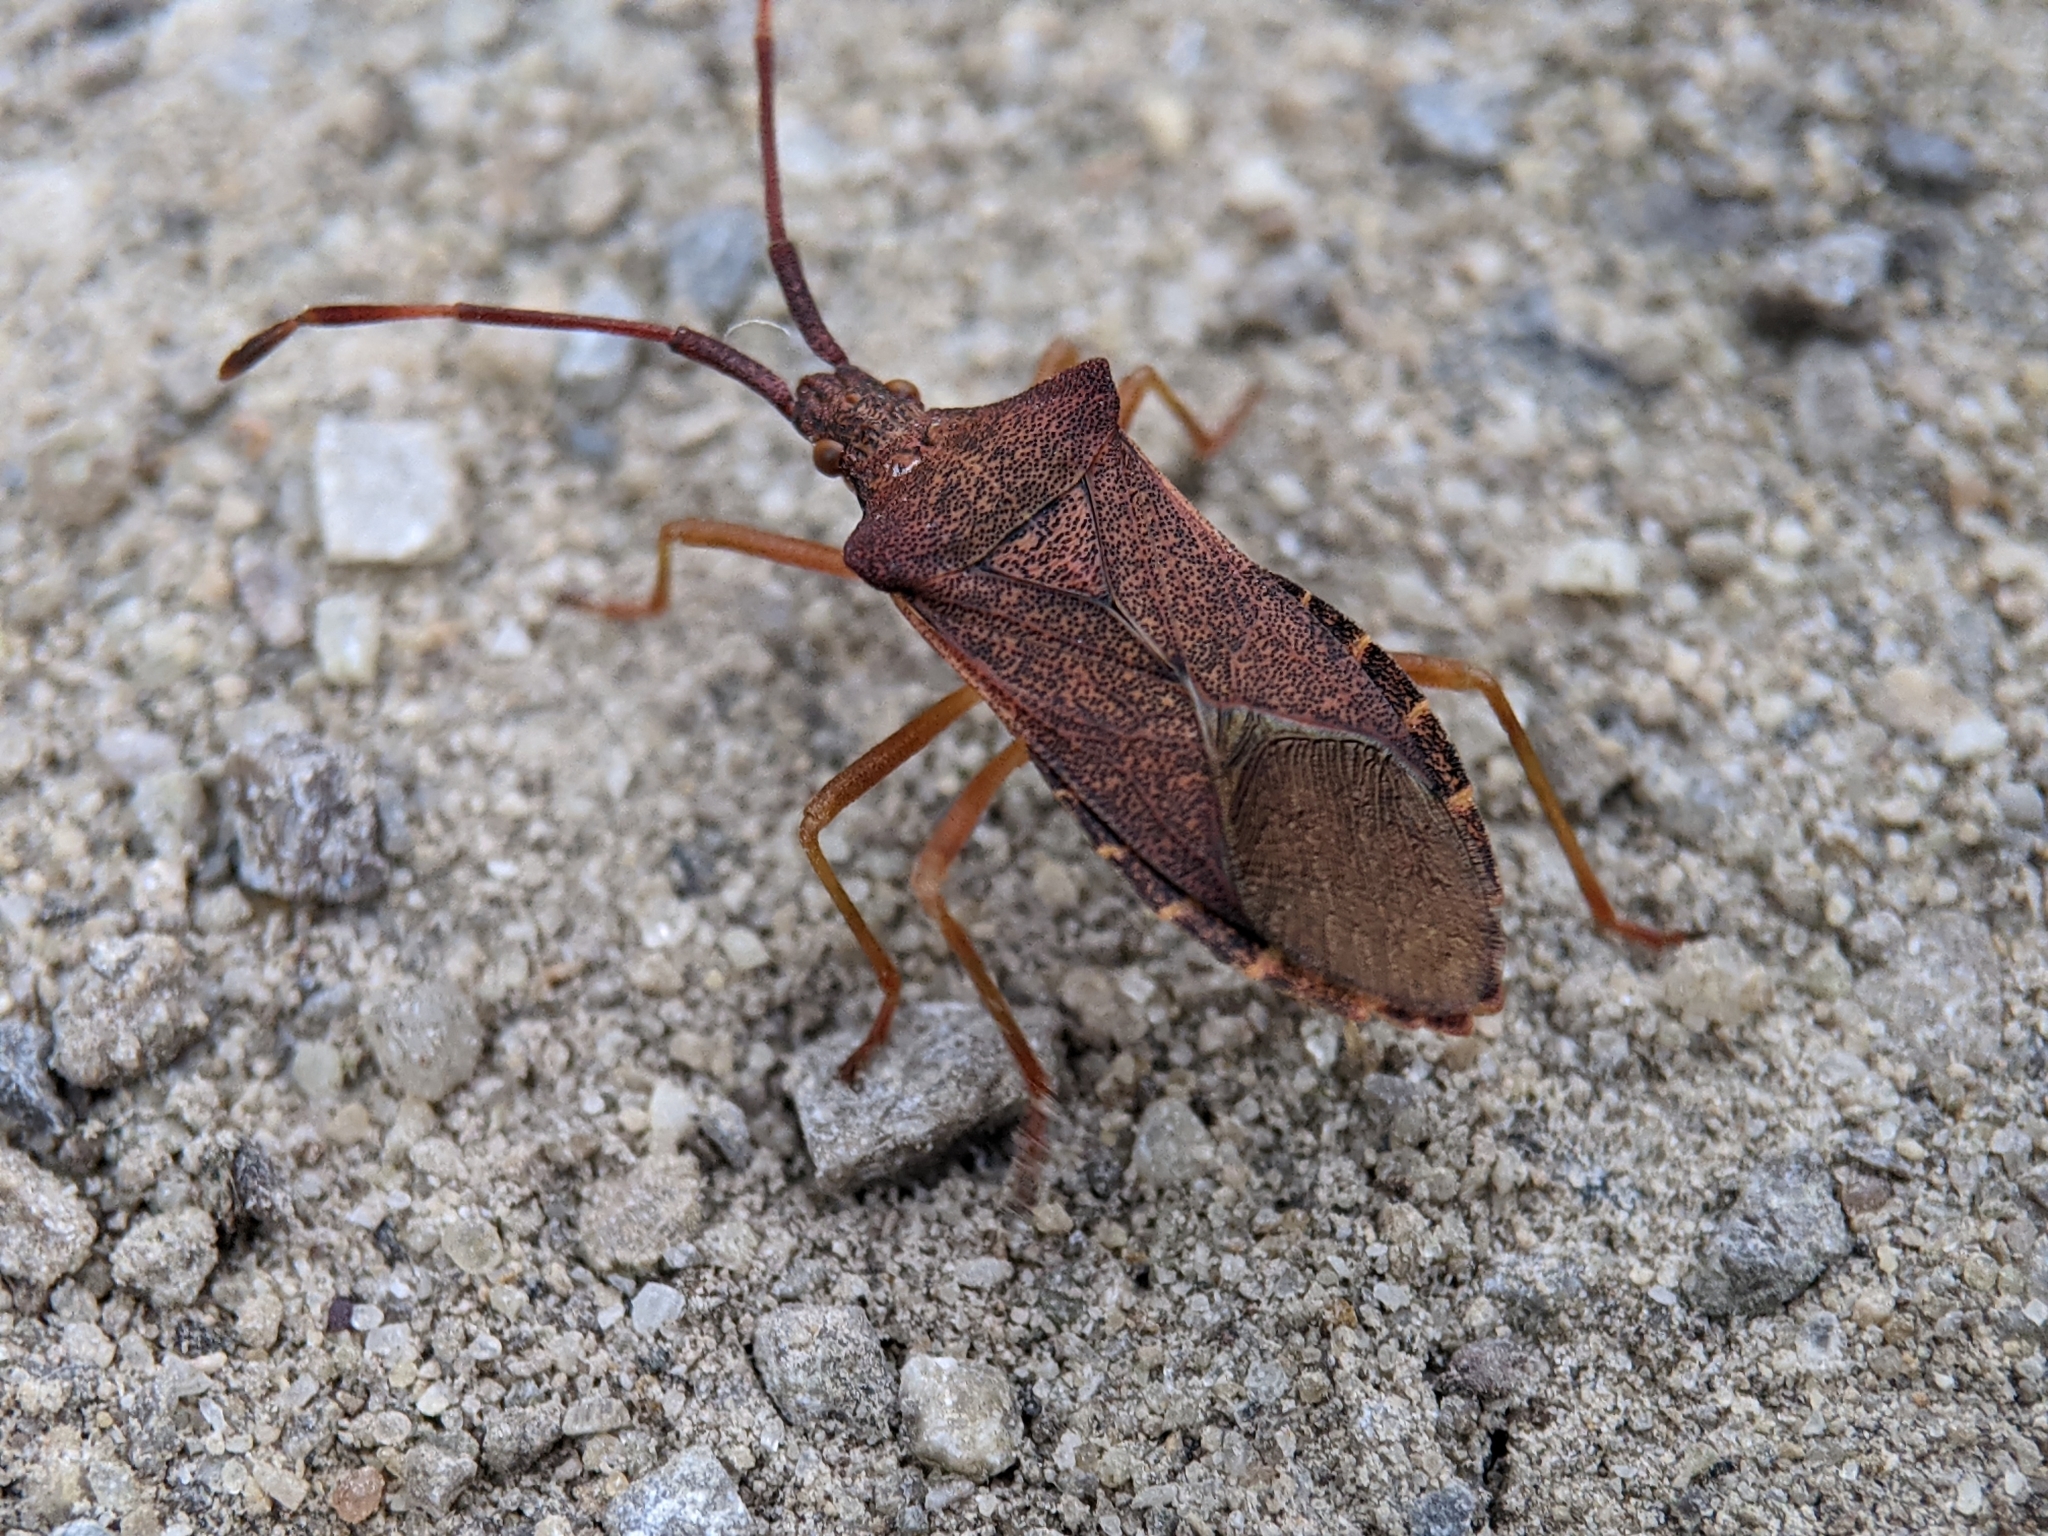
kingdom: Animalia
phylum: Arthropoda
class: Insecta
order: Hemiptera
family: Coreidae
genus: Gonocerus
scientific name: Gonocerus acuteangulatus
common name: Box bug
